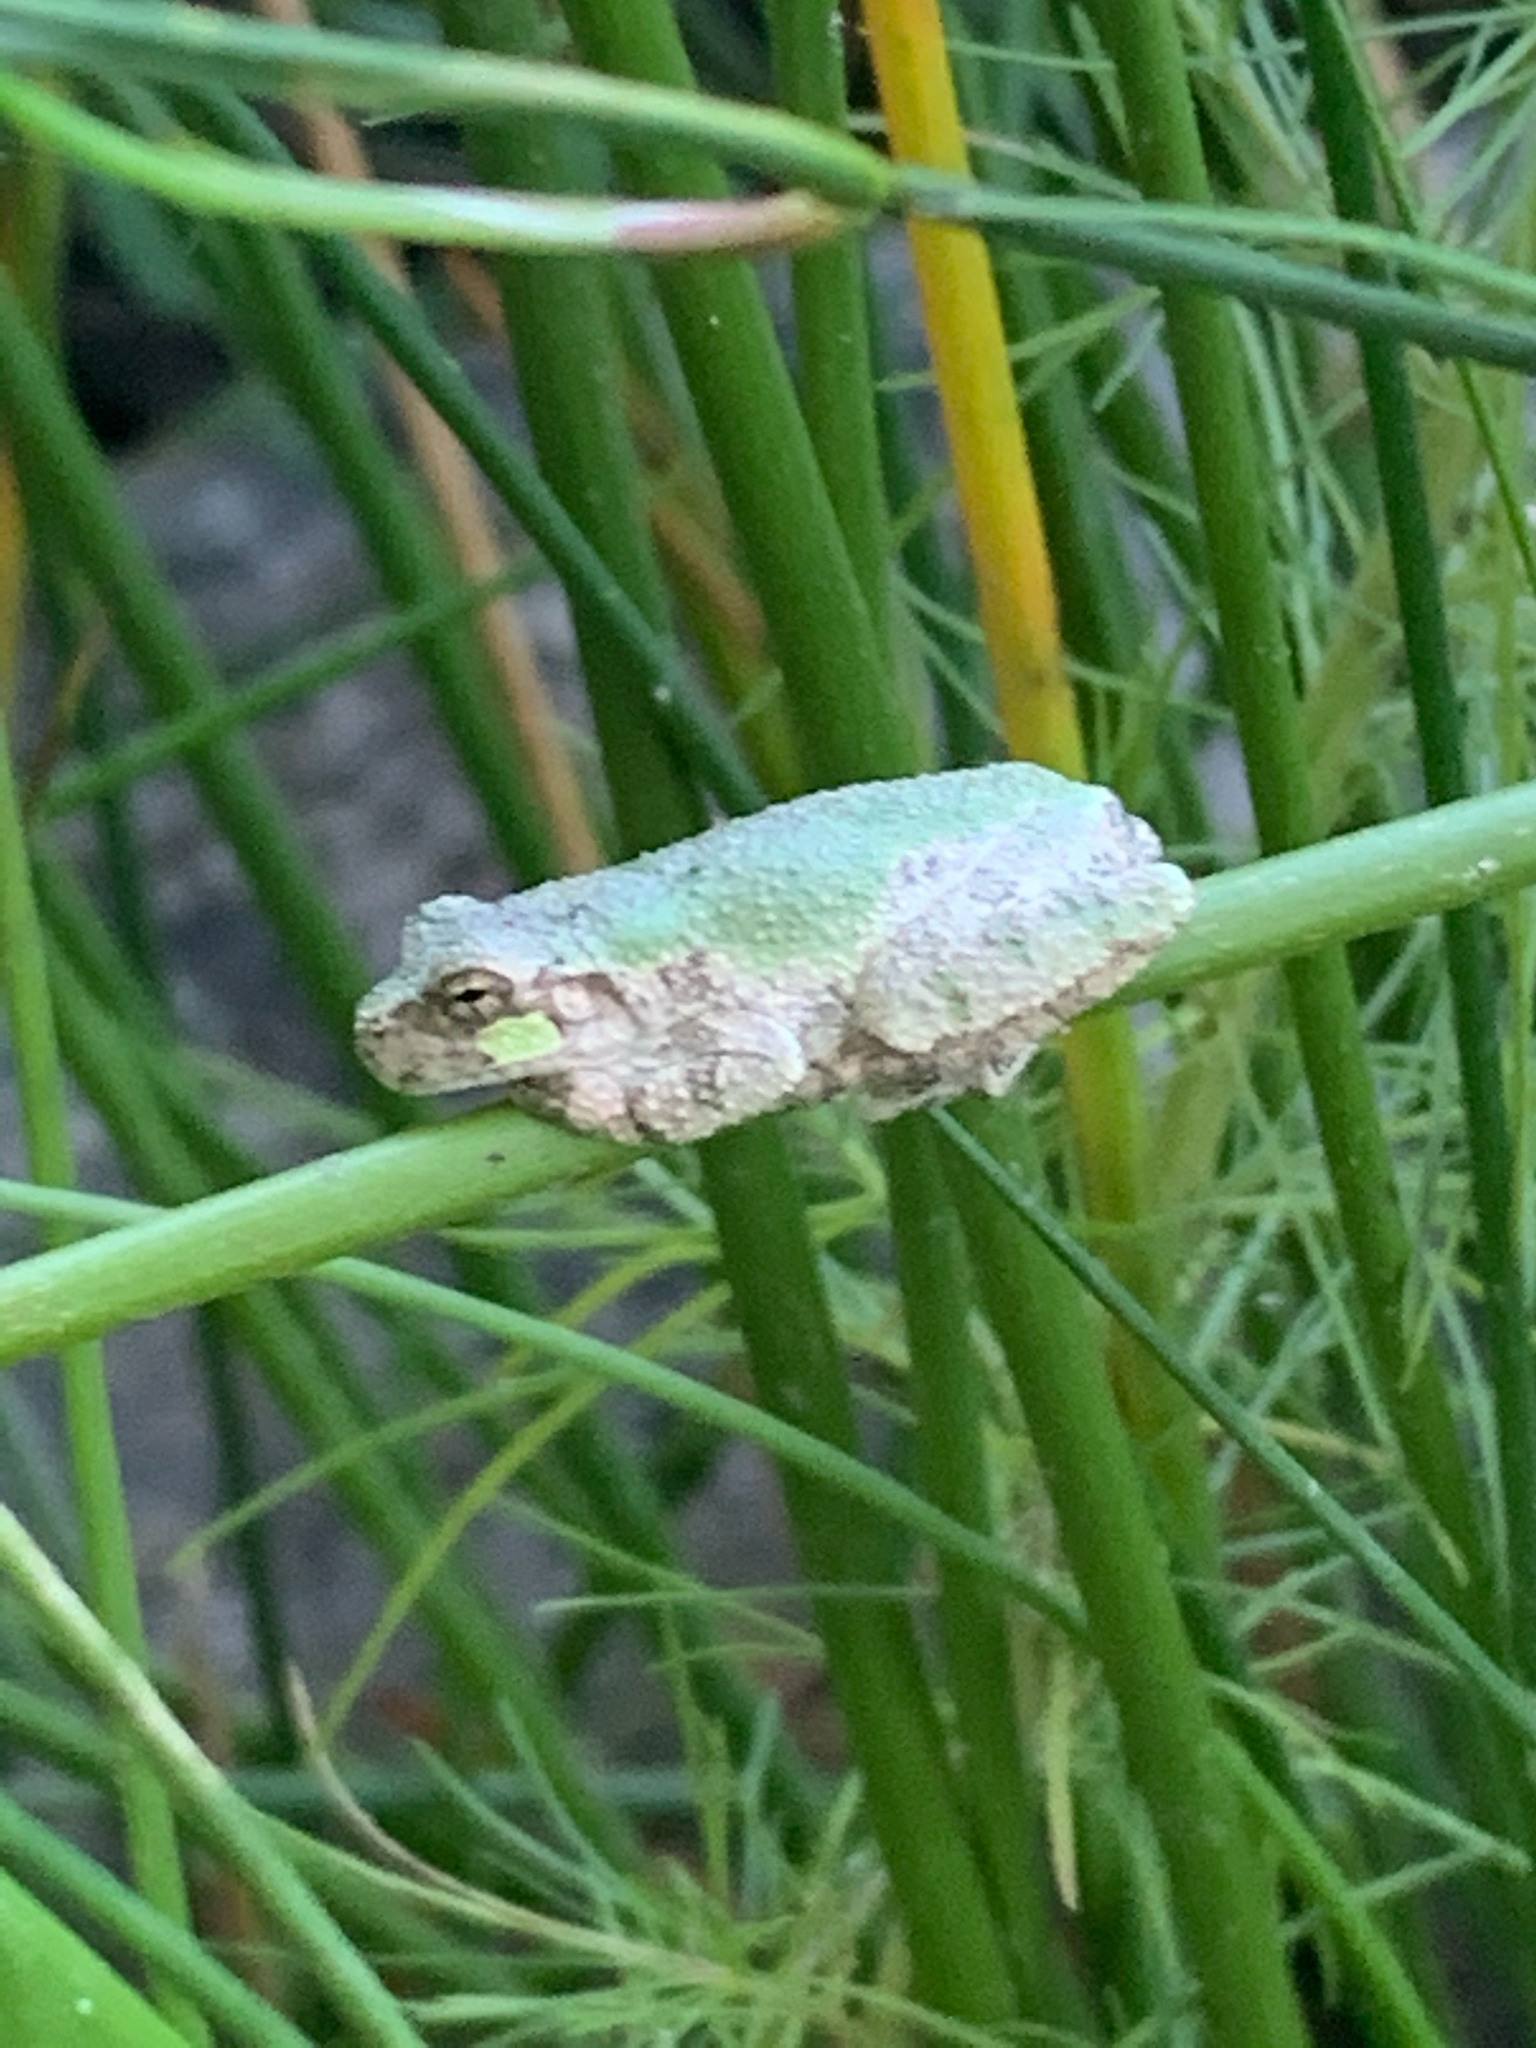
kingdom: Animalia
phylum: Chordata
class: Amphibia
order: Anura
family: Hylidae
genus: Hyla
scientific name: Hyla
